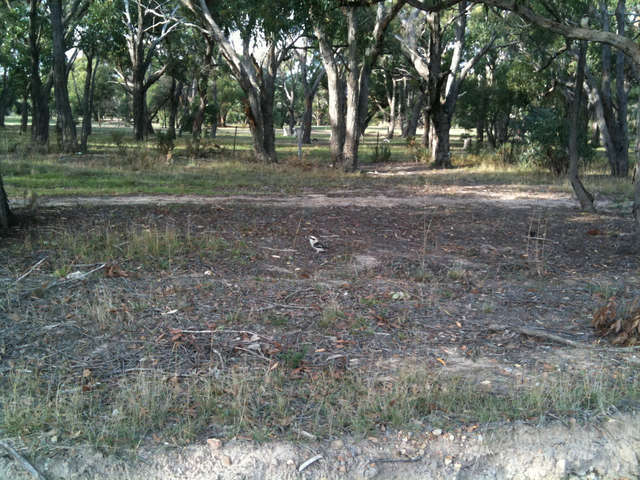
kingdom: Animalia
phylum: Chordata
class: Aves
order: Coraciiformes
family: Alcedinidae
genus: Dacelo
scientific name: Dacelo novaeguineae
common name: Laughing kookaburra
